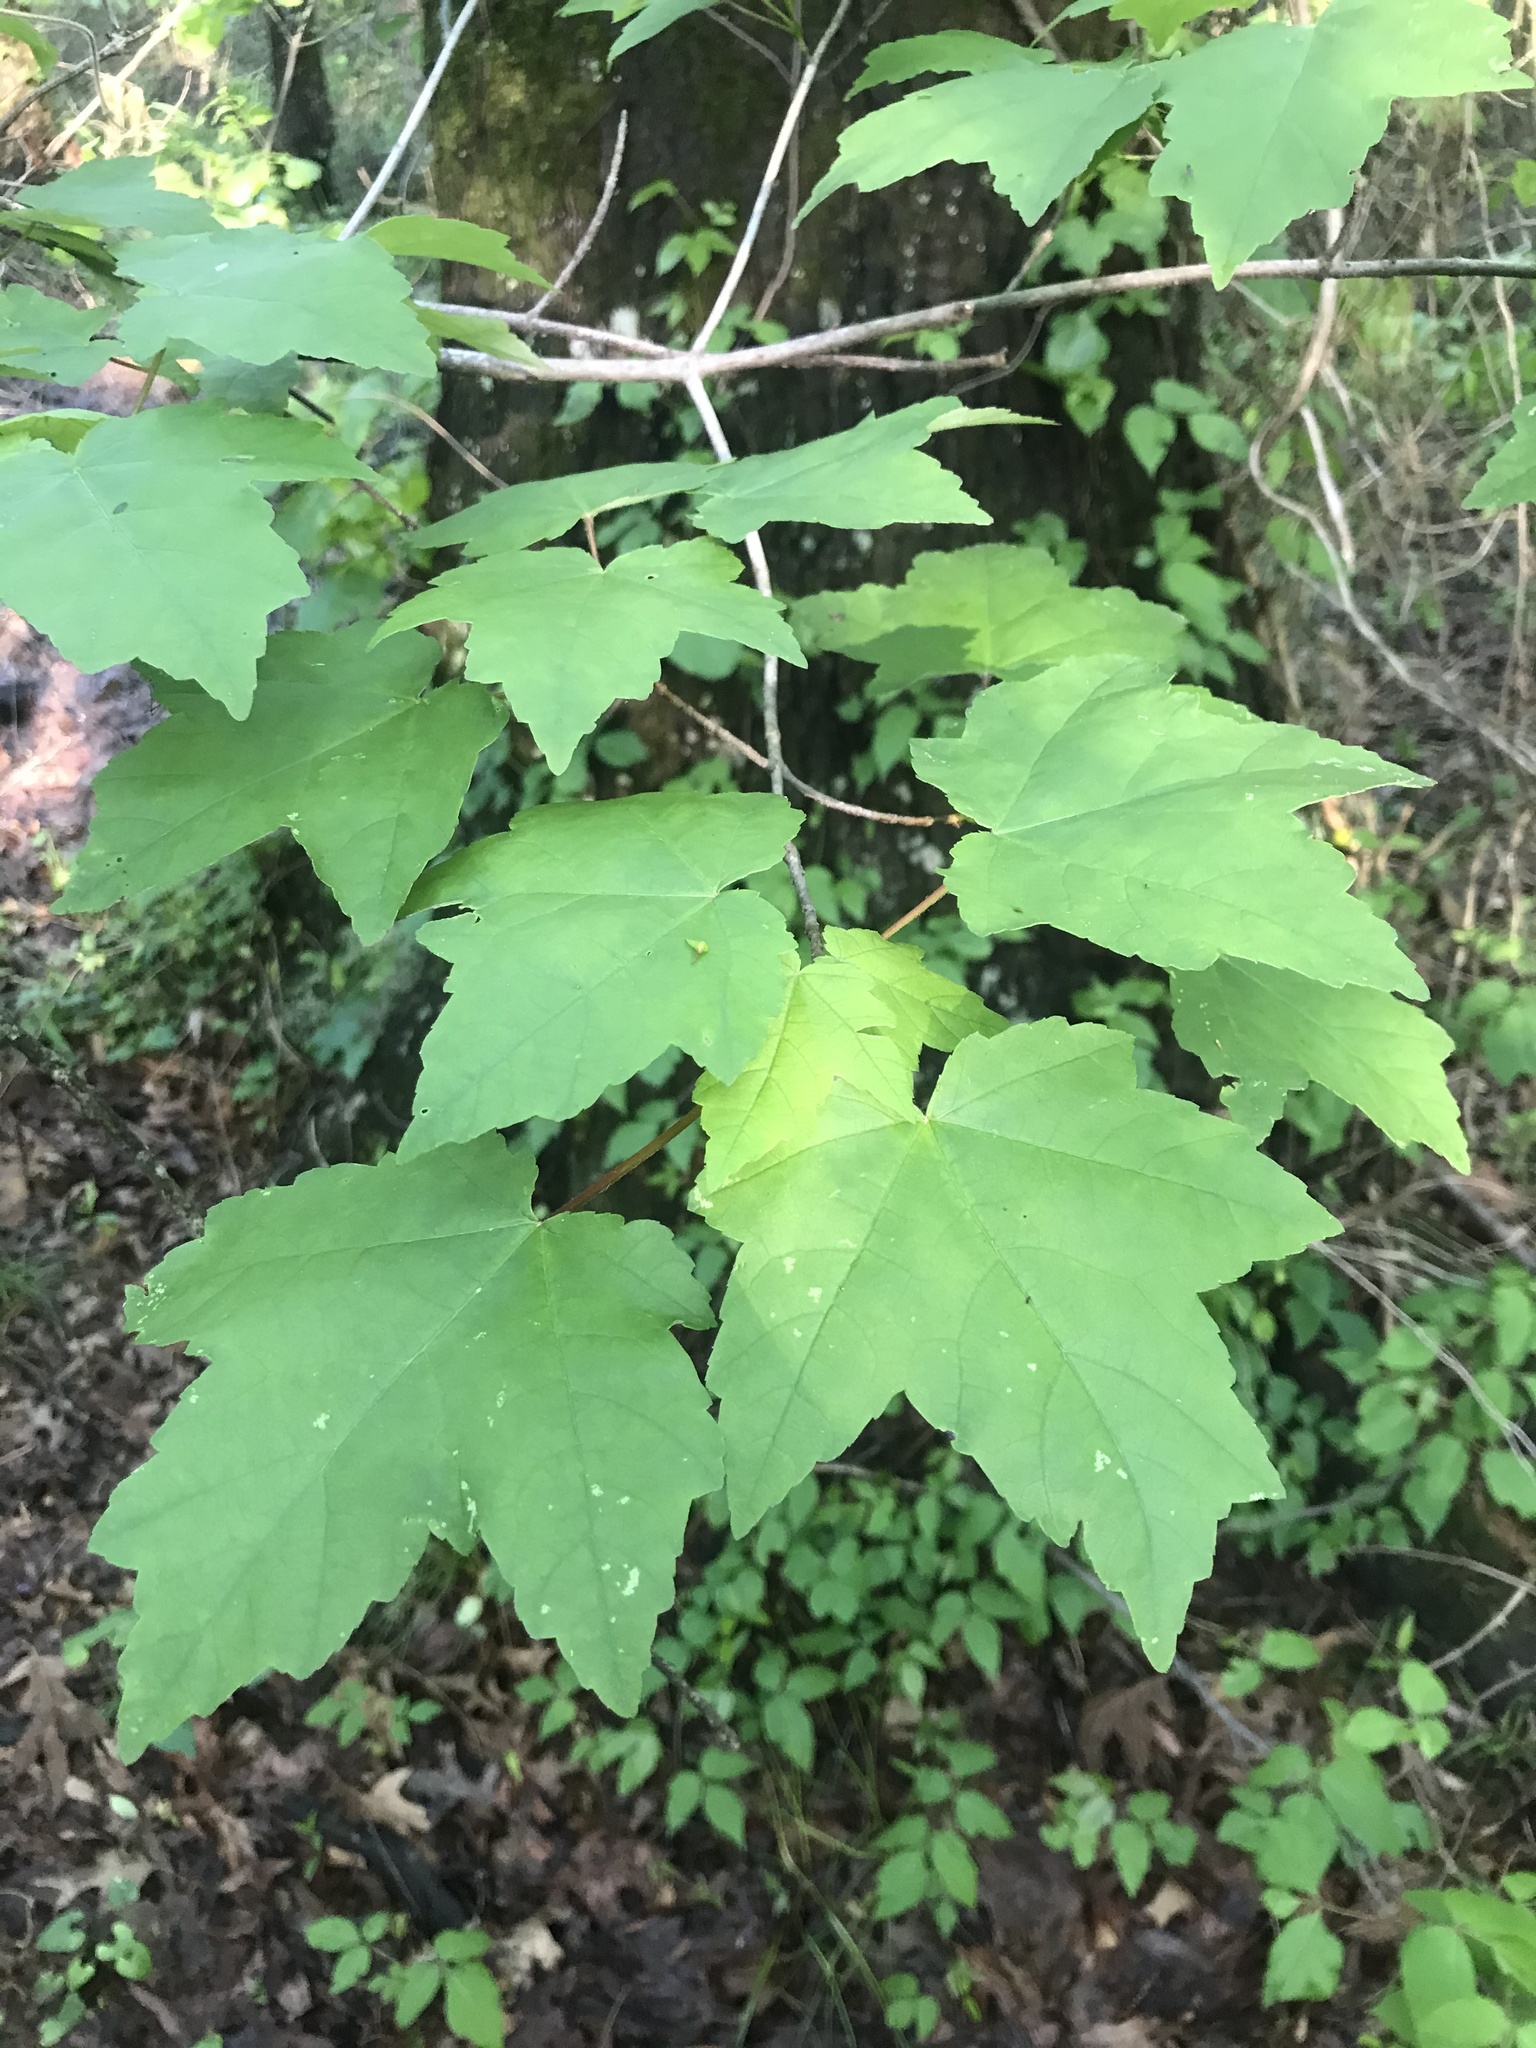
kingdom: Plantae
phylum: Tracheophyta
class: Magnoliopsida
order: Sapindales
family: Sapindaceae
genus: Acer
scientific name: Acer rubrum
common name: Red maple
